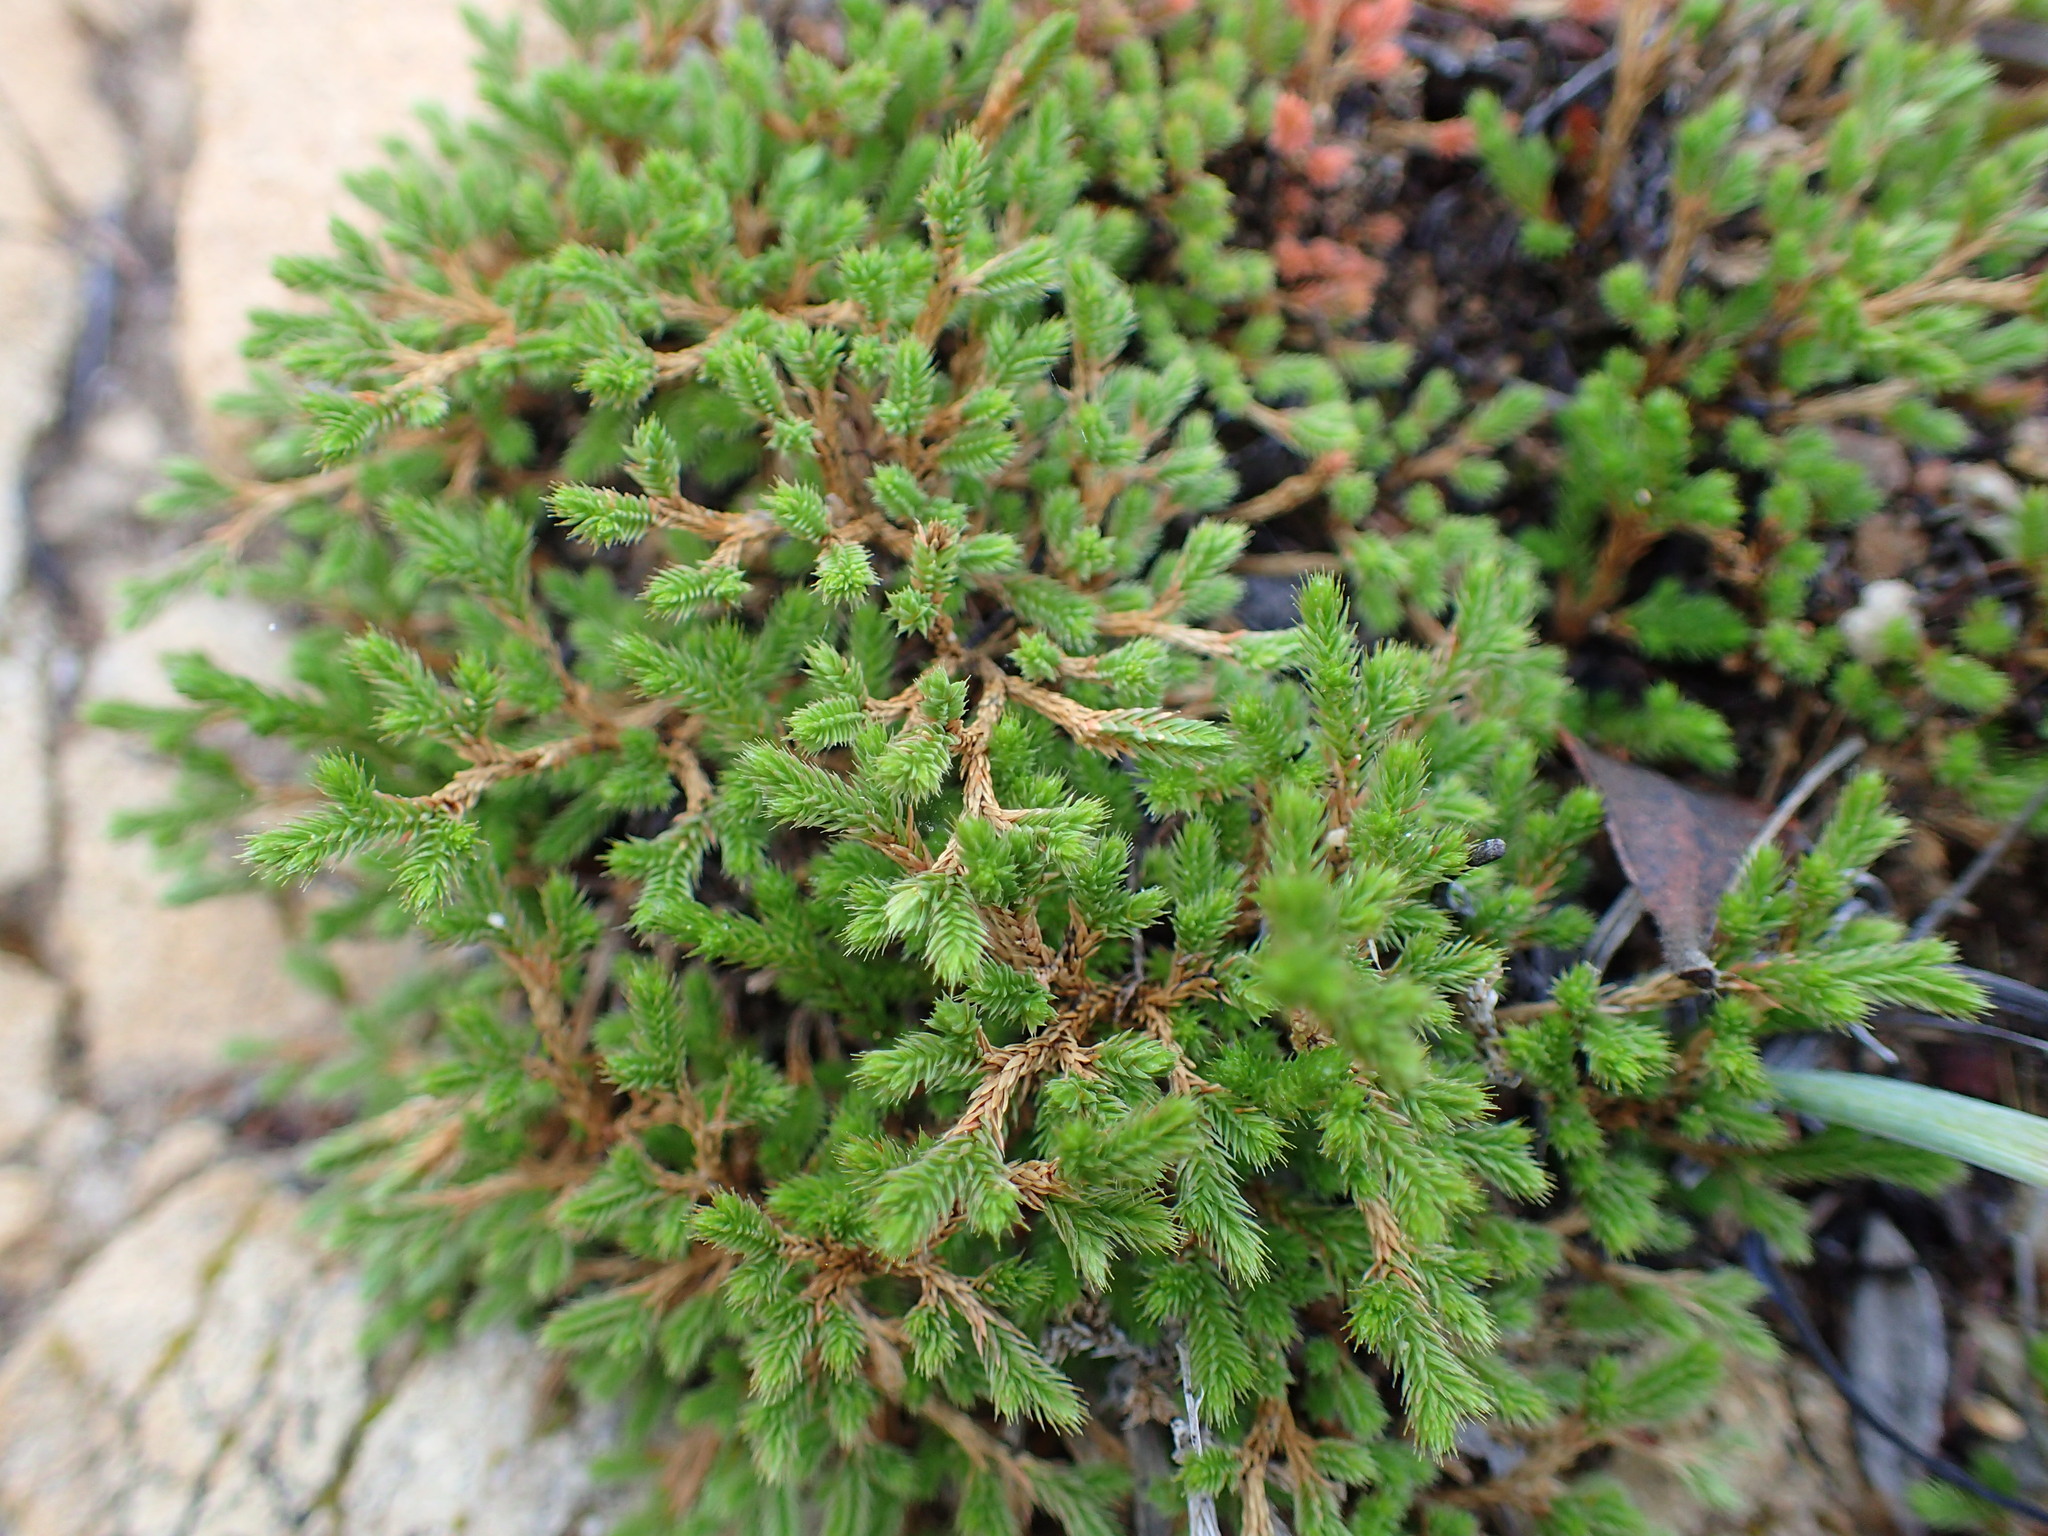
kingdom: Plantae
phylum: Tracheophyta
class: Lycopodiopsida
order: Selaginellales
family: Selaginellaceae
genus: Selaginella
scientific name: Selaginella bigelovii
